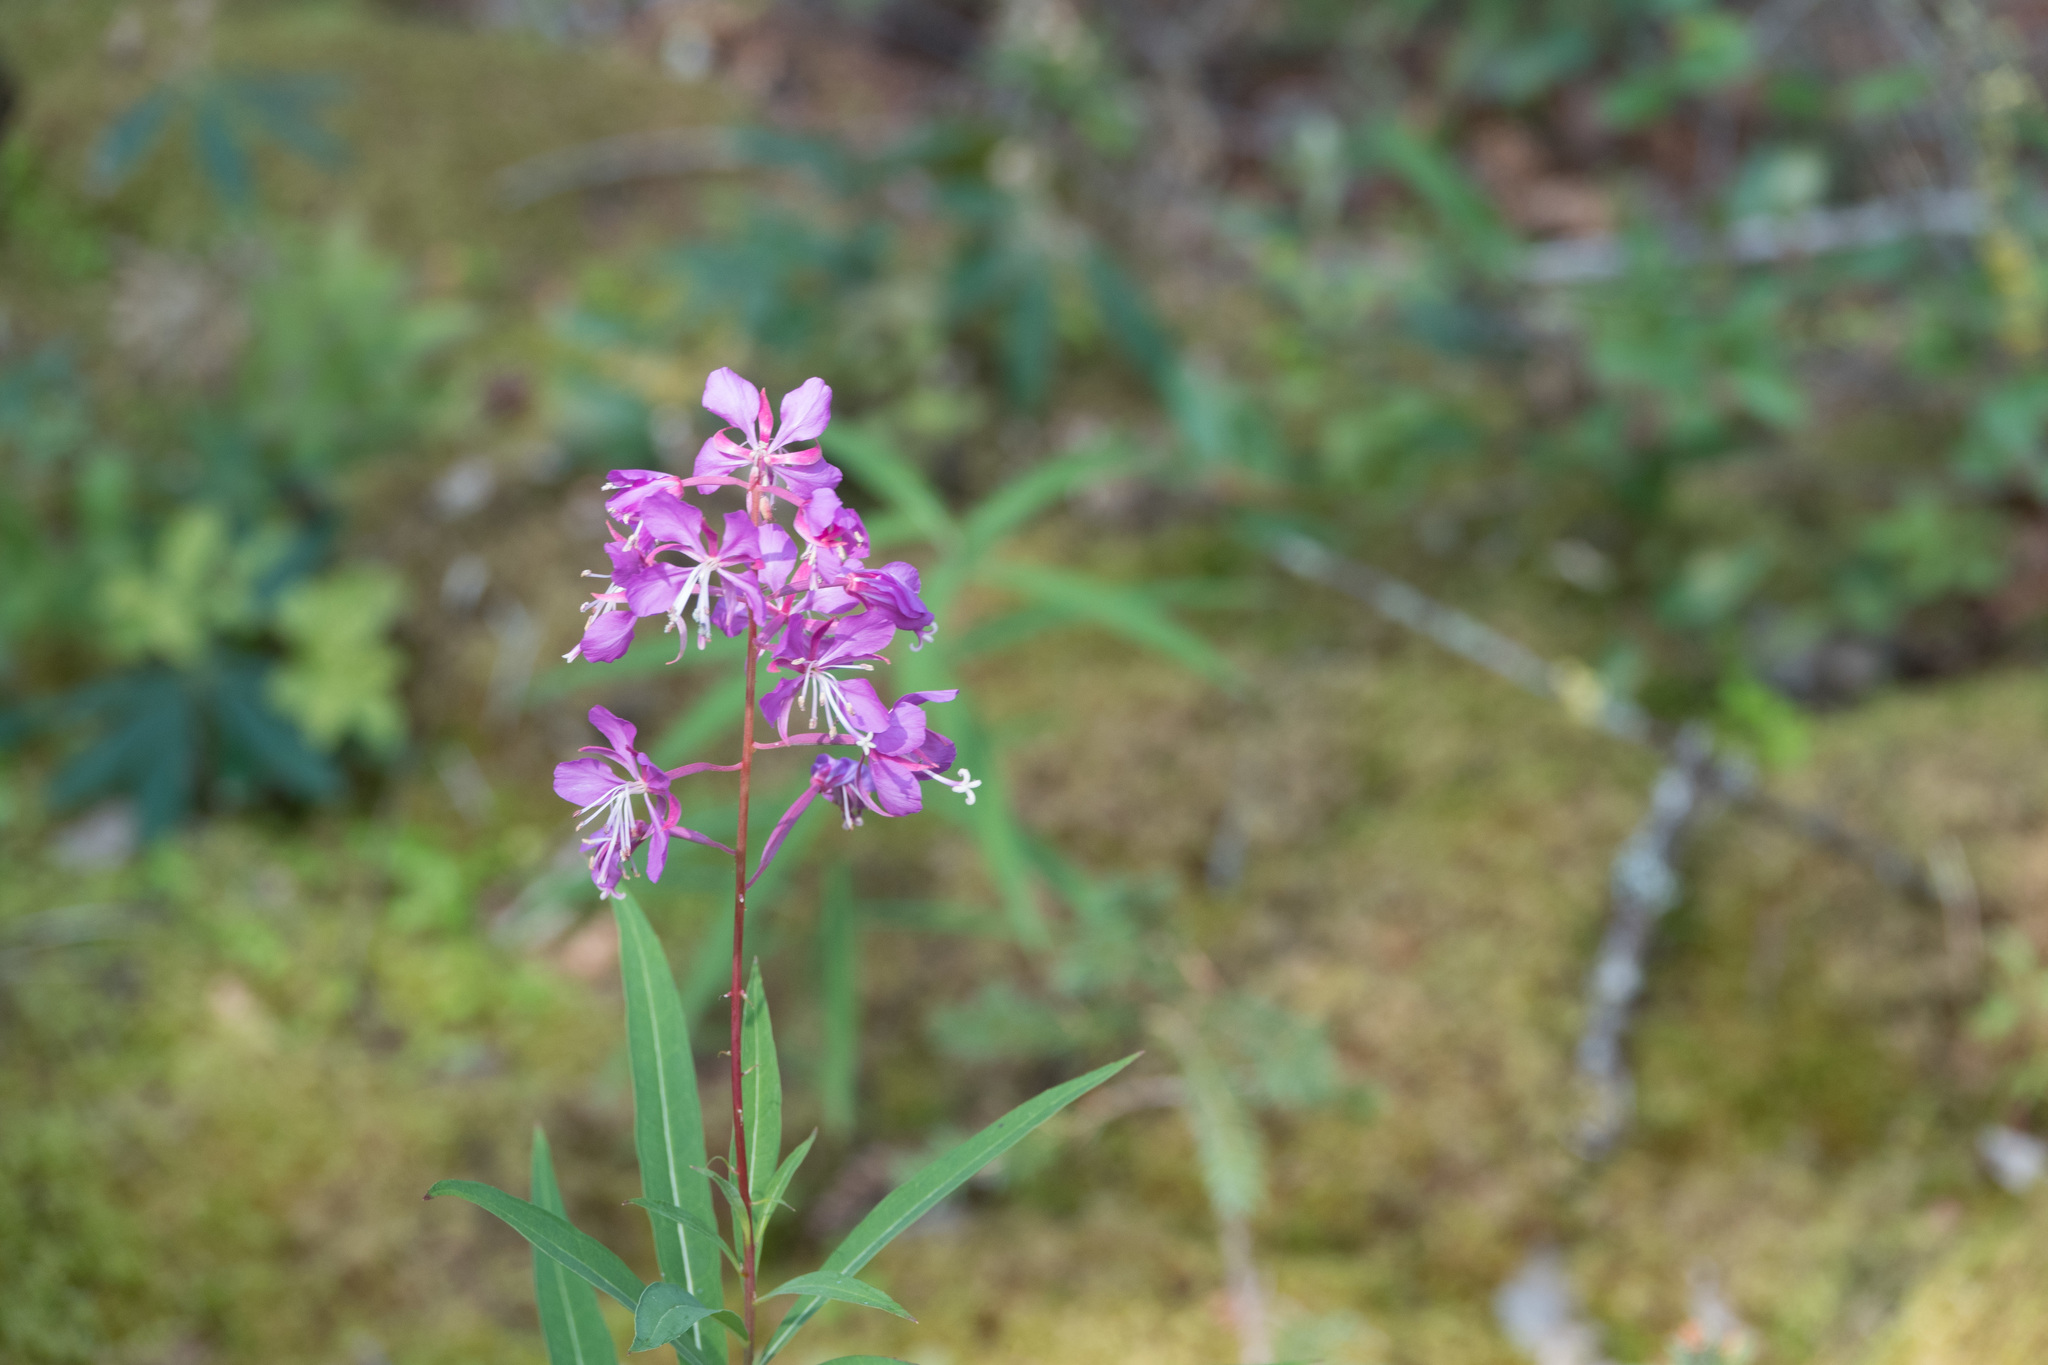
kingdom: Plantae
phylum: Tracheophyta
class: Magnoliopsida
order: Myrtales
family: Onagraceae
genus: Chamaenerion
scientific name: Chamaenerion angustifolium
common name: Fireweed
